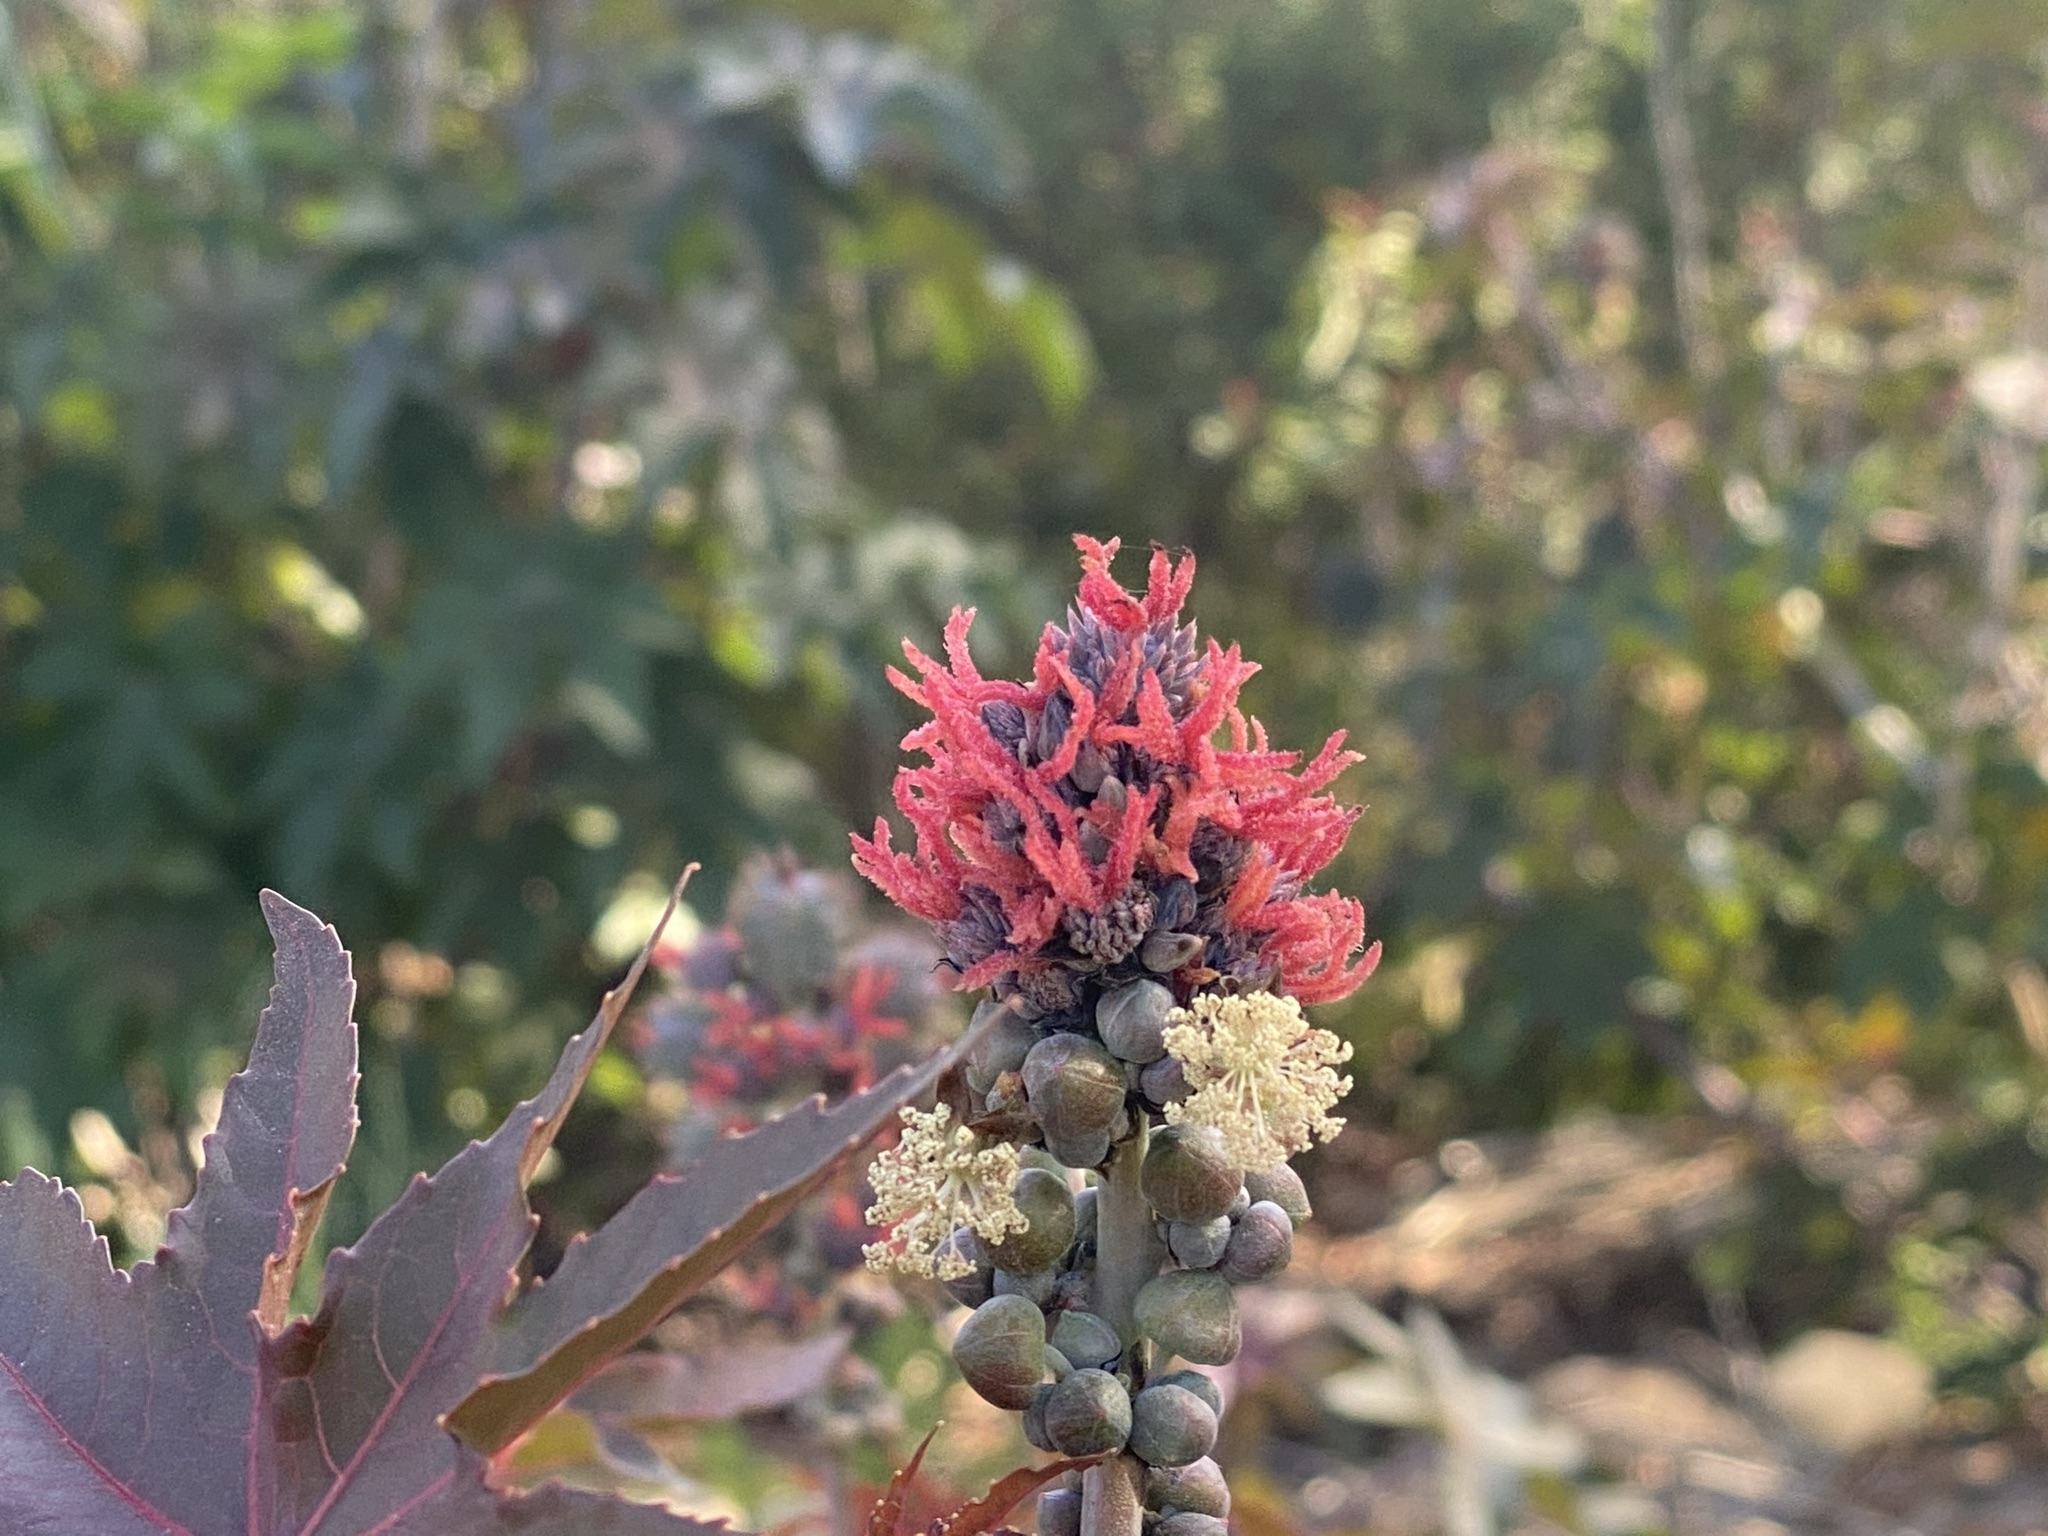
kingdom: Plantae
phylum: Tracheophyta
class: Magnoliopsida
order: Malpighiales
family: Euphorbiaceae
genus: Ricinus
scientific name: Ricinus communis
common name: Castor-oil-plant
